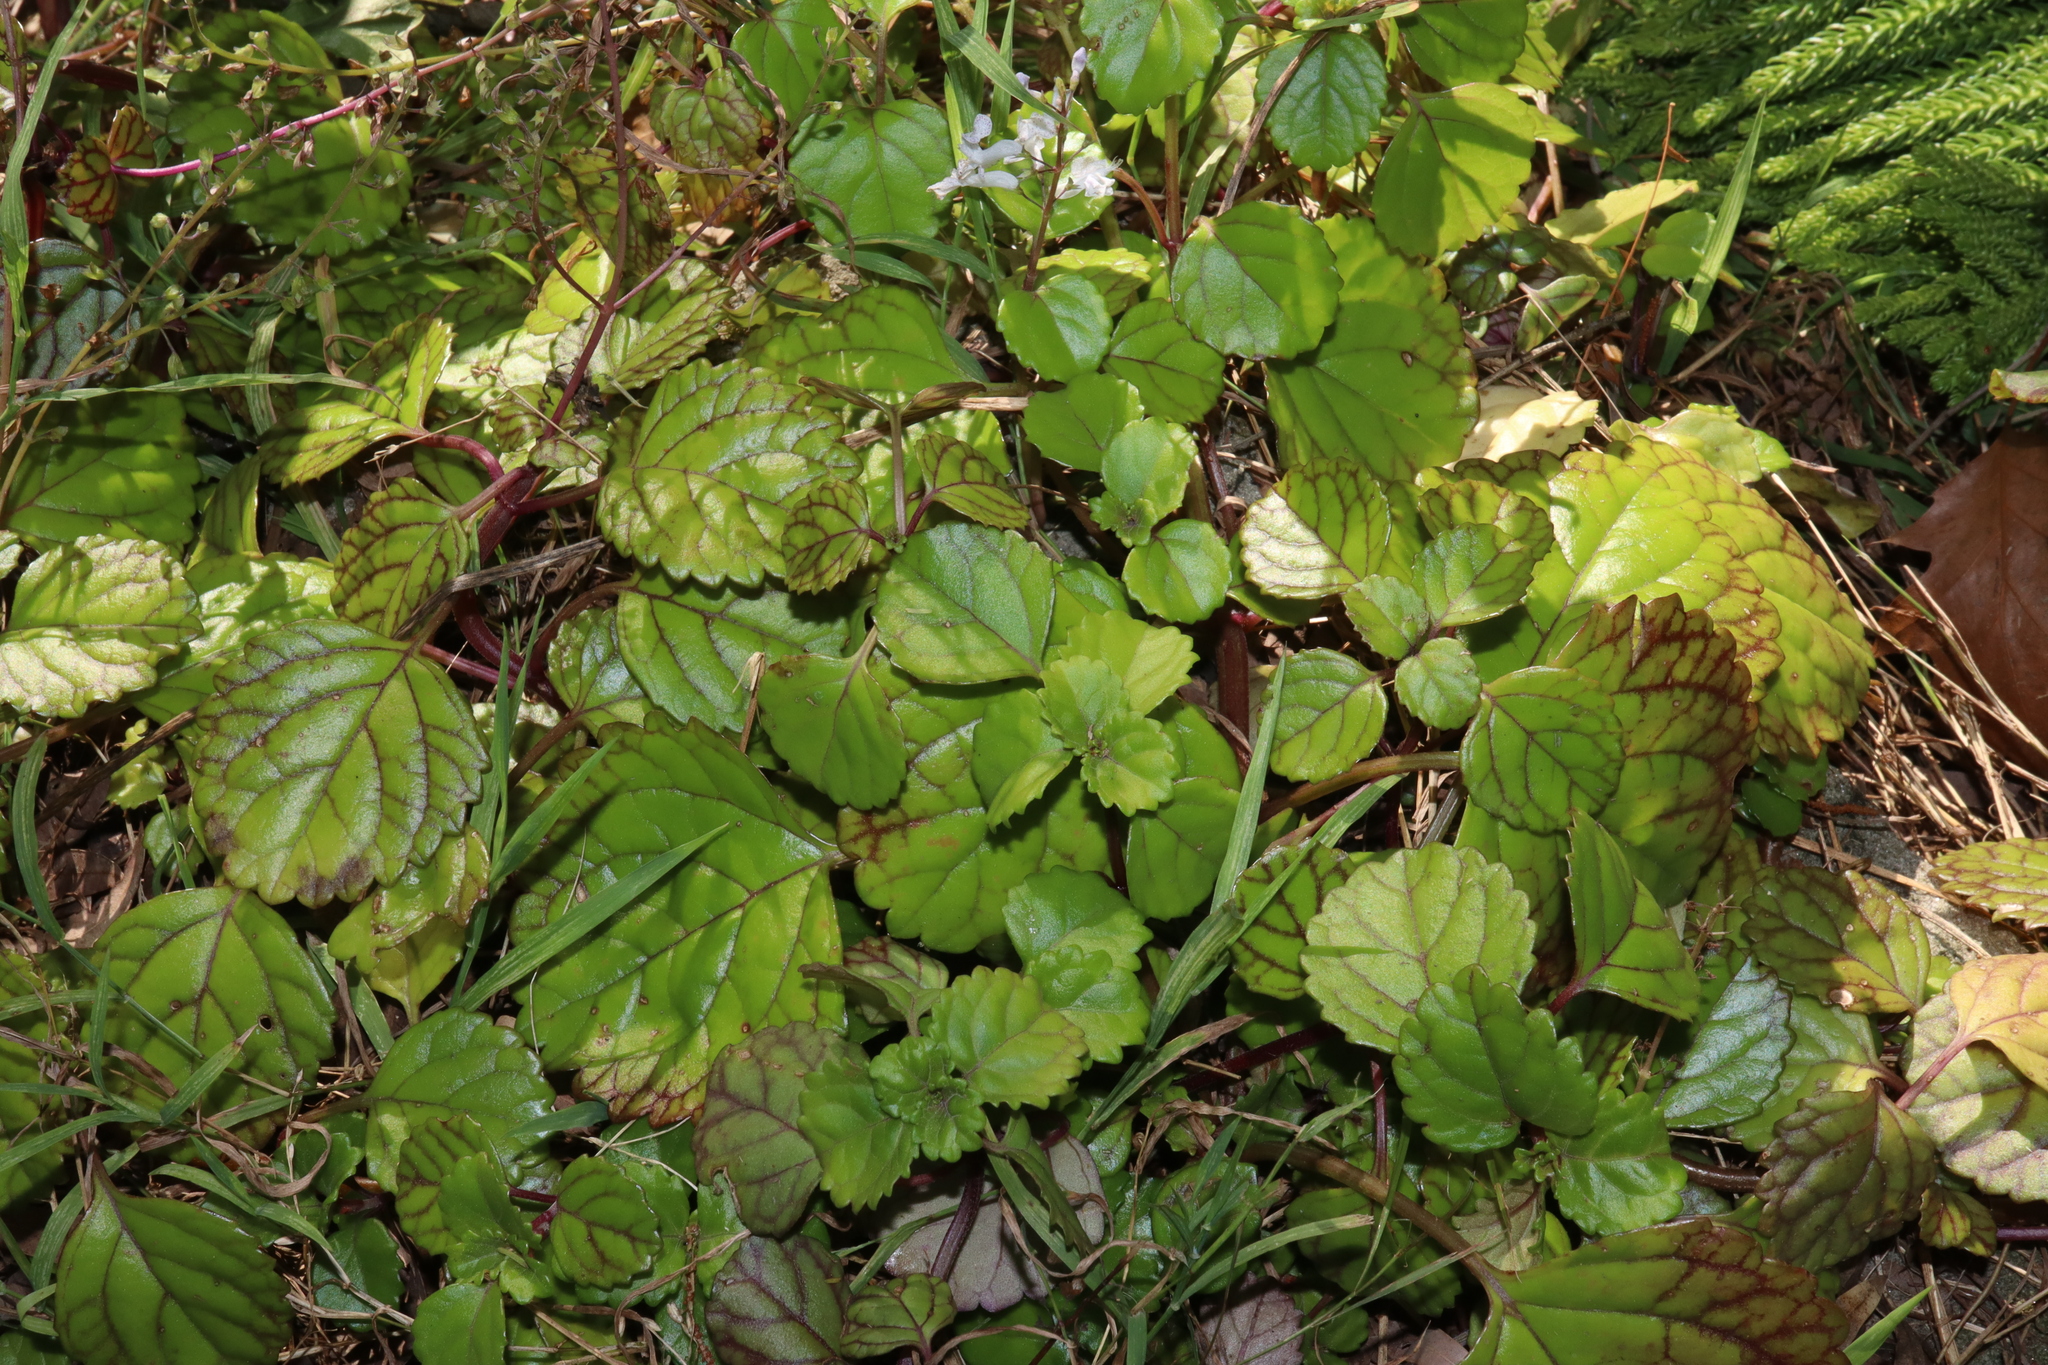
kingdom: Plantae
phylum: Tracheophyta
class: Magnoliopsida
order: Lamiales
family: Lamiaceae
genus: Plectranthus
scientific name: Plectranthus verticillatus
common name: Whorled plectranthus
